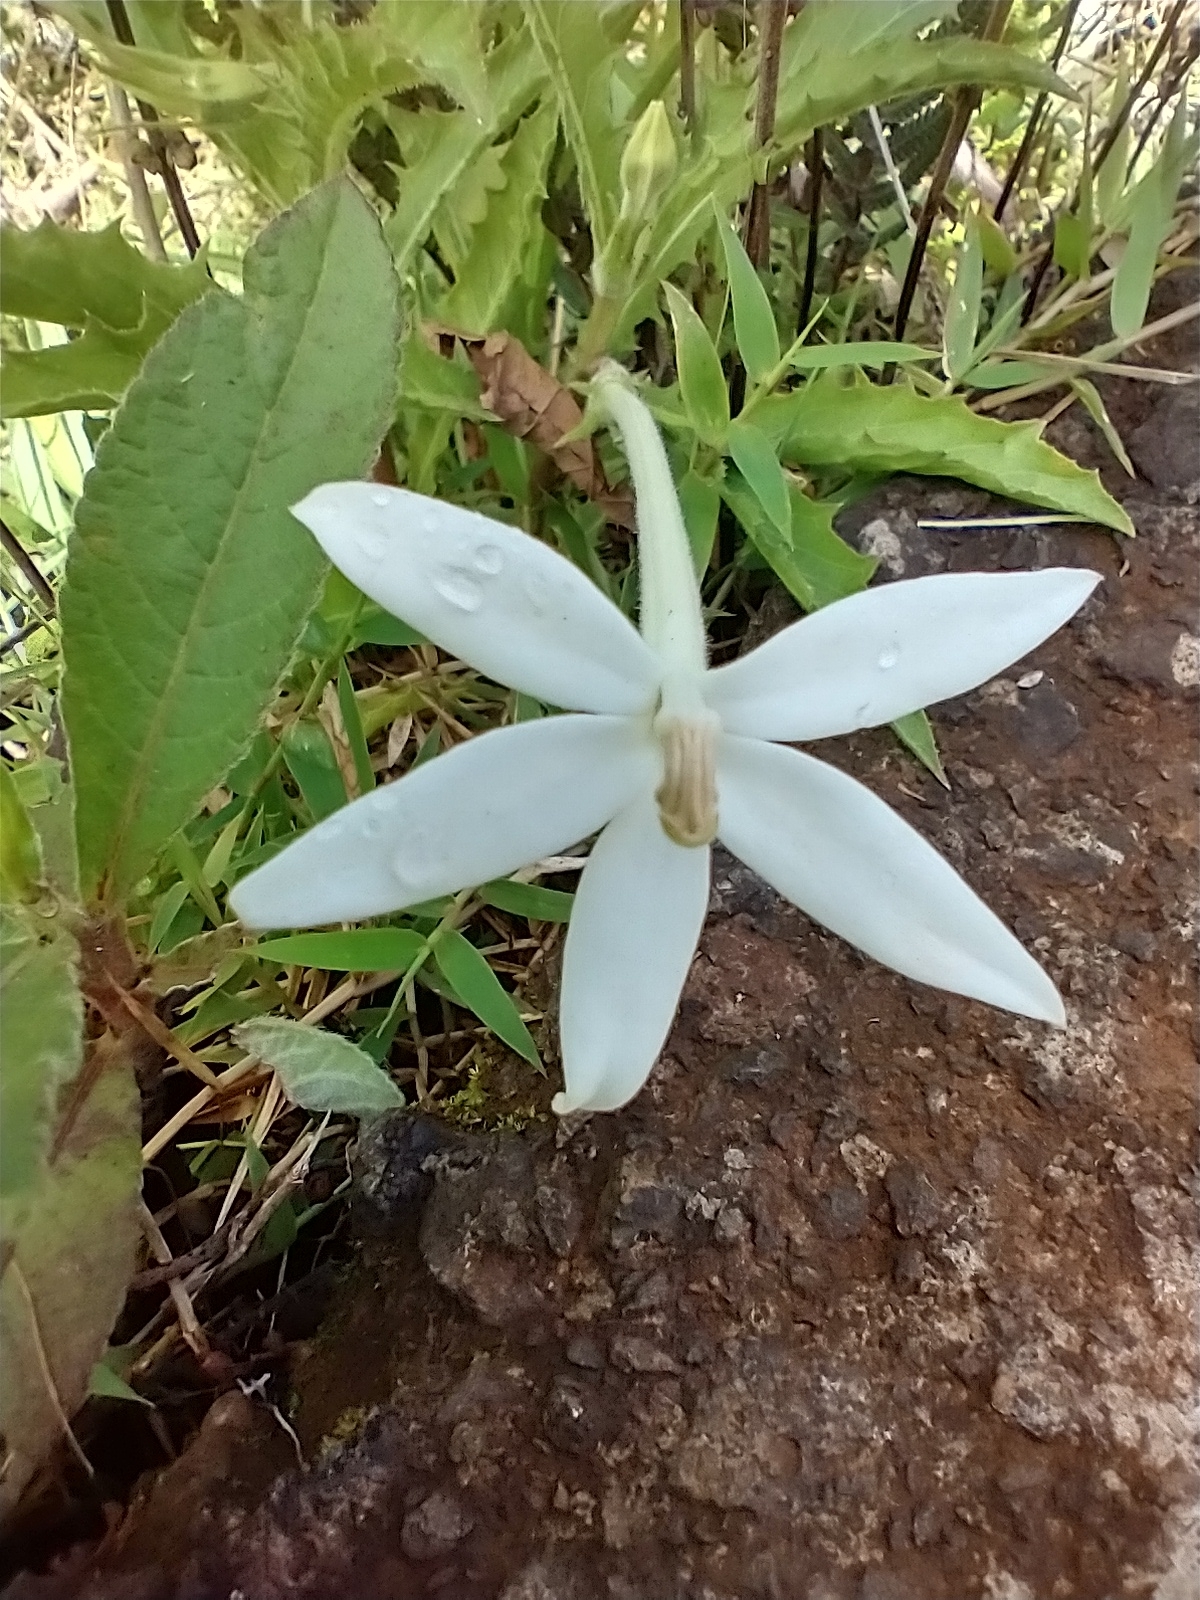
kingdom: Plantae
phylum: Tracheophyta
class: Magnoliopsida
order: Asterales
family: Campanulaceae
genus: Hippobroma
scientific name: Hippobroma longiflora
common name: Madamfate
